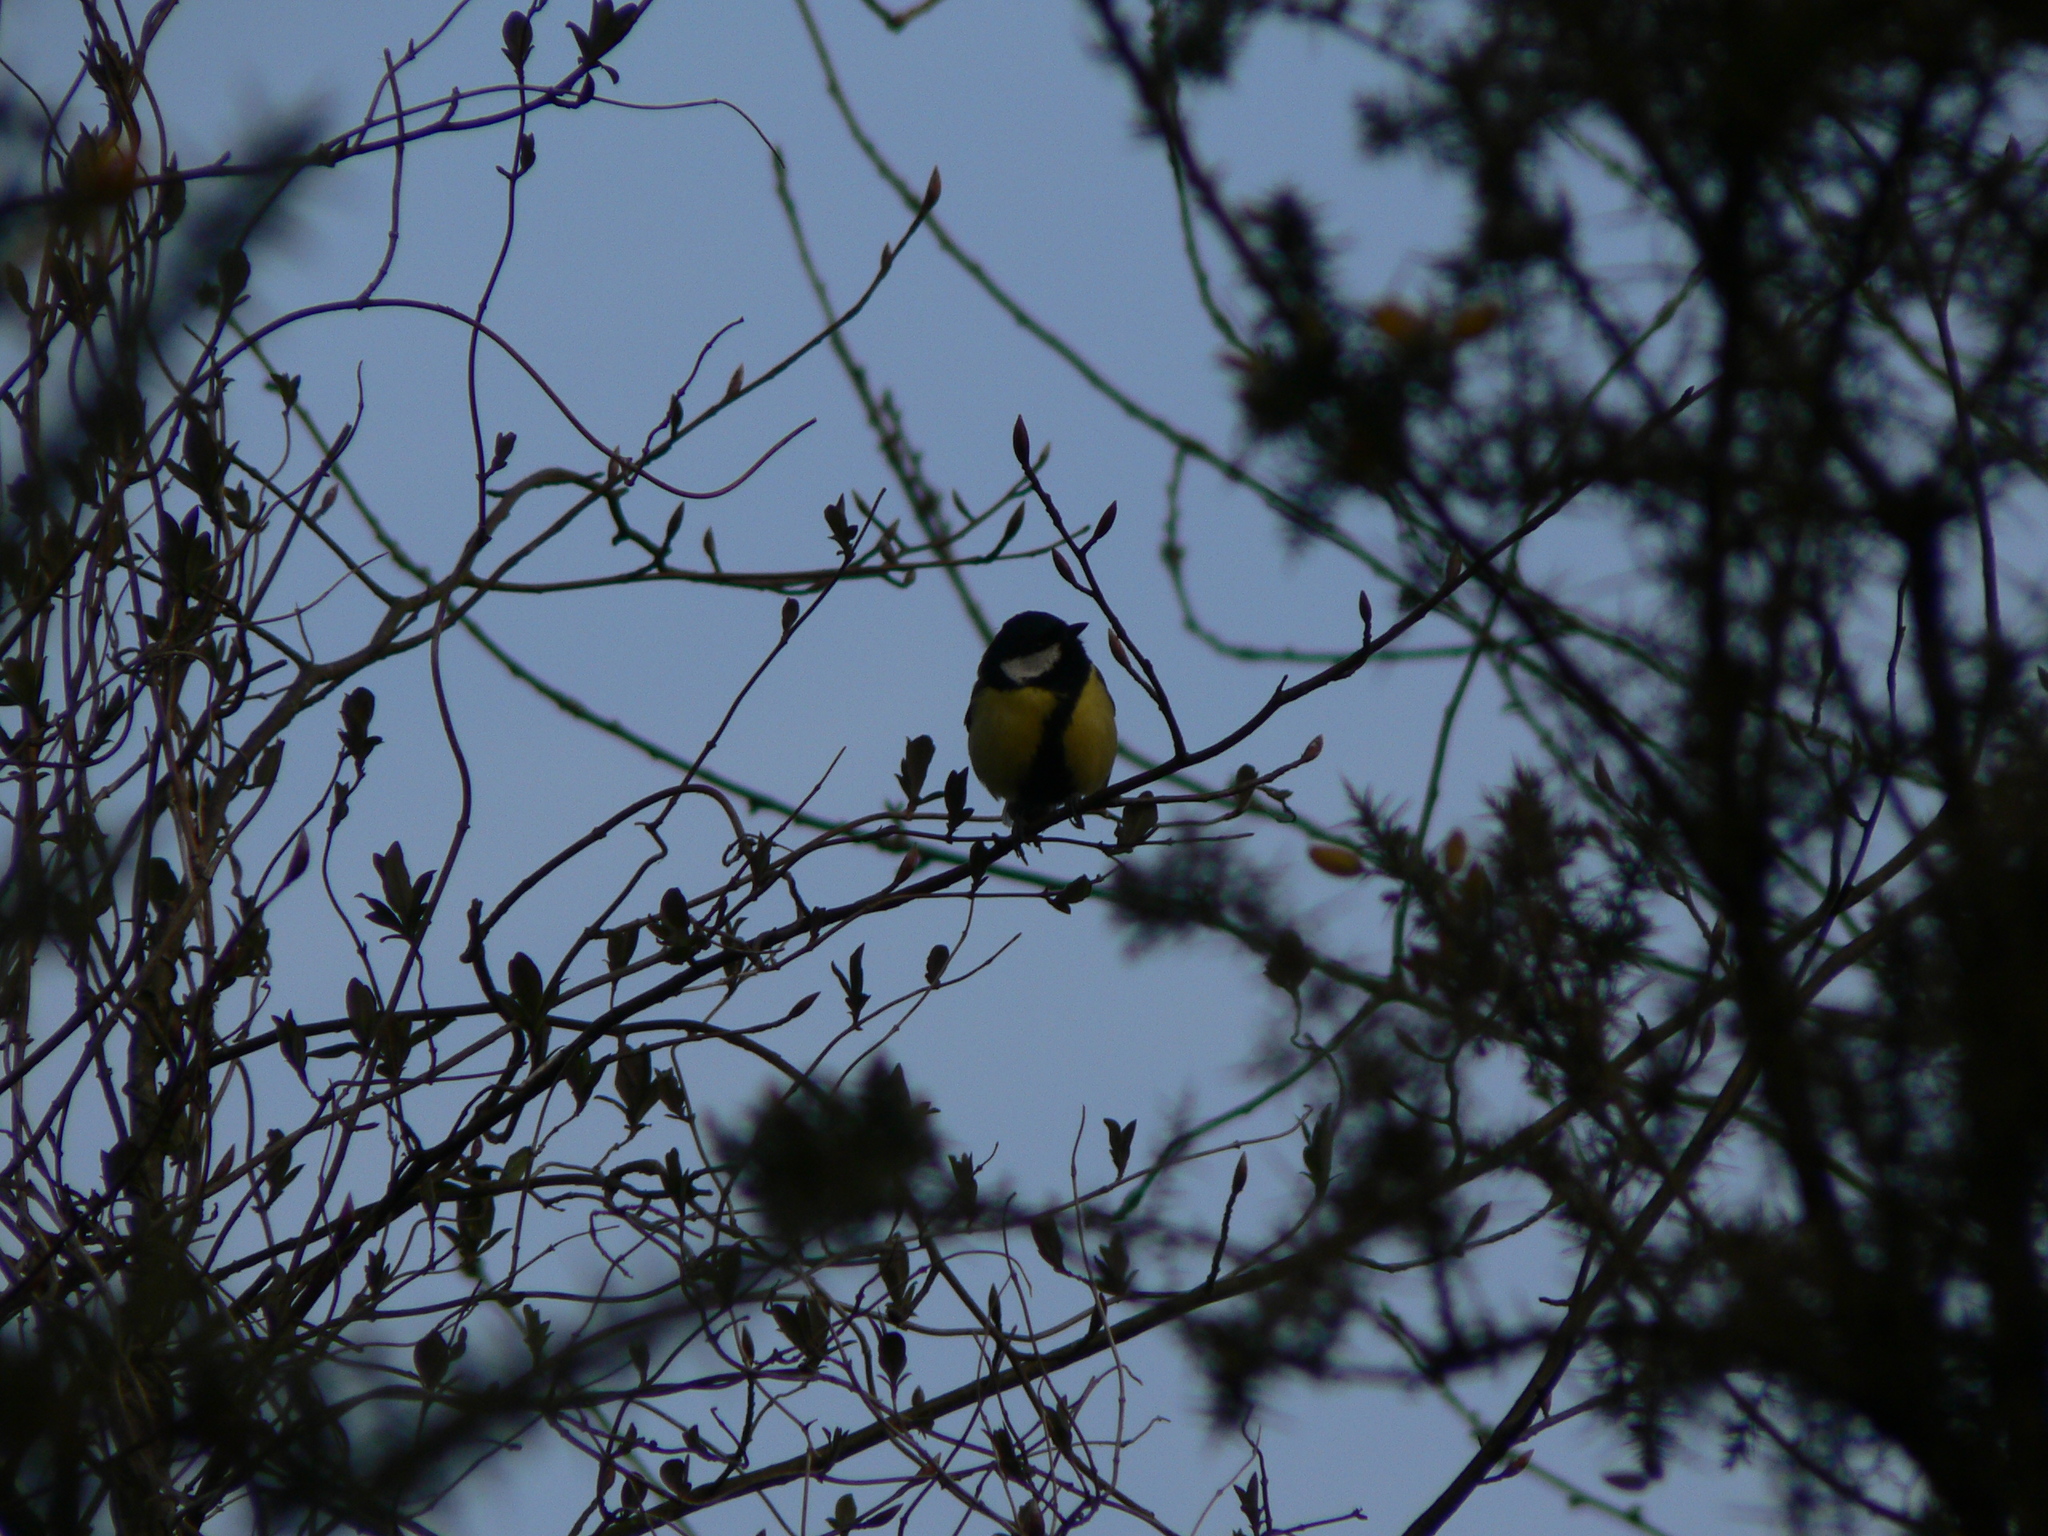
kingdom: Animalia
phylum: Chordata
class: Aves
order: Passeriformes
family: Paridae
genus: Parus
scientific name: Parus major
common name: Great tit
